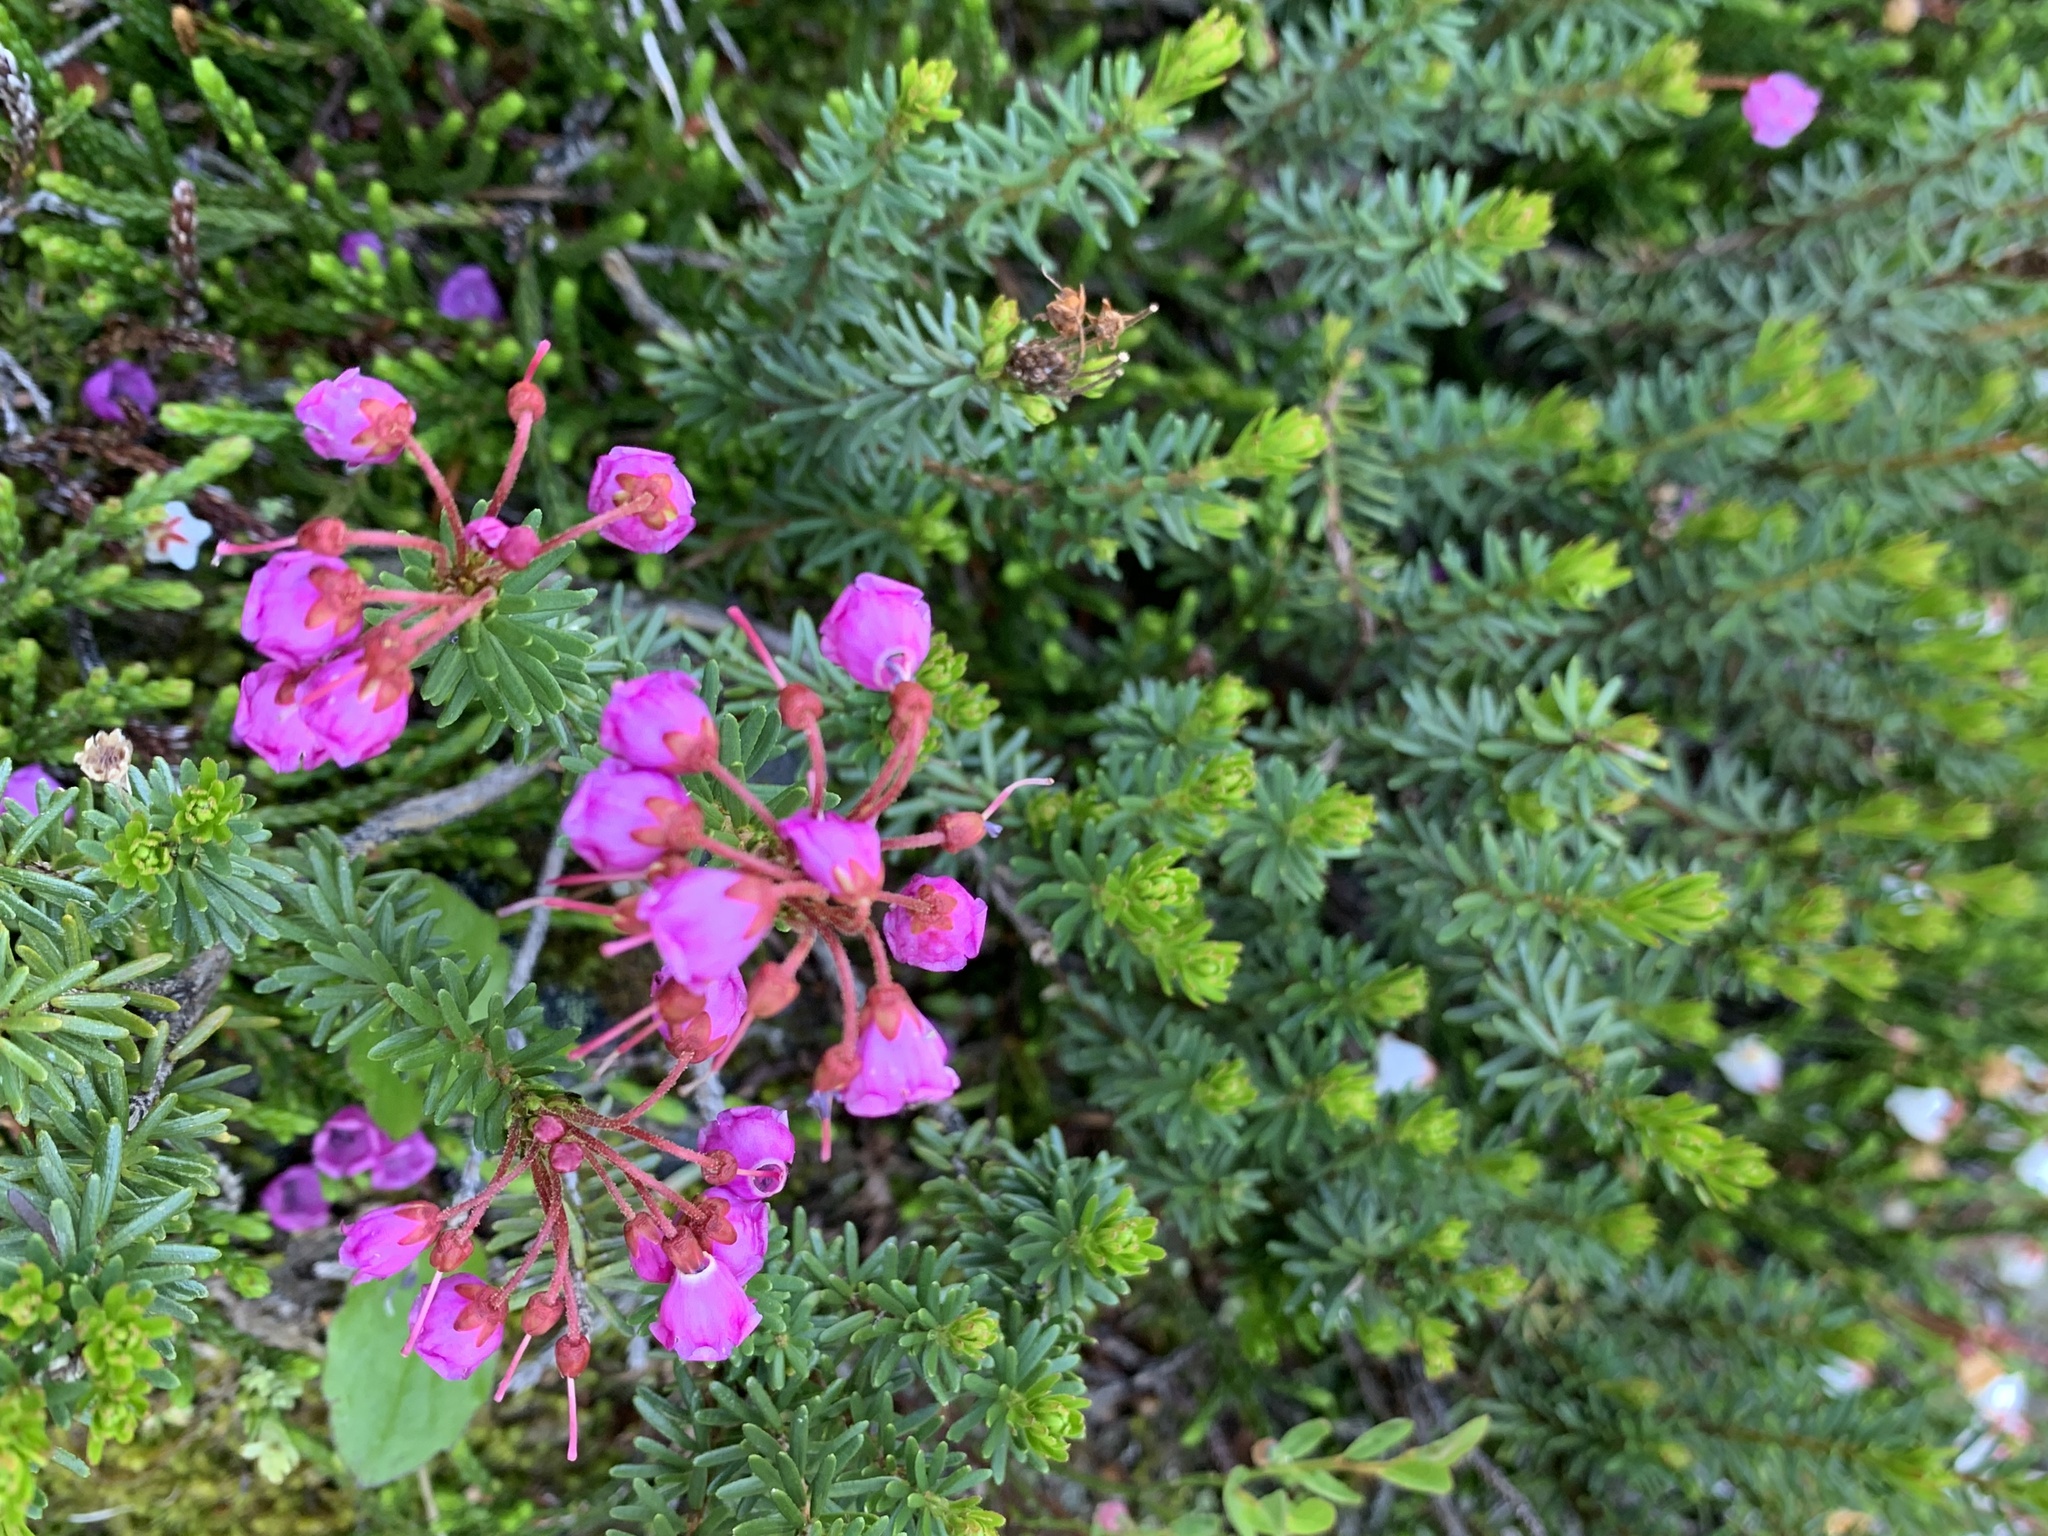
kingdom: Plantae
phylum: Tracheophyta
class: Magnoliopsida
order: Ericales
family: Ericaceae
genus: Phyllodoce
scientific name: Phyllodoce empetriformis
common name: Pink mountain heather
